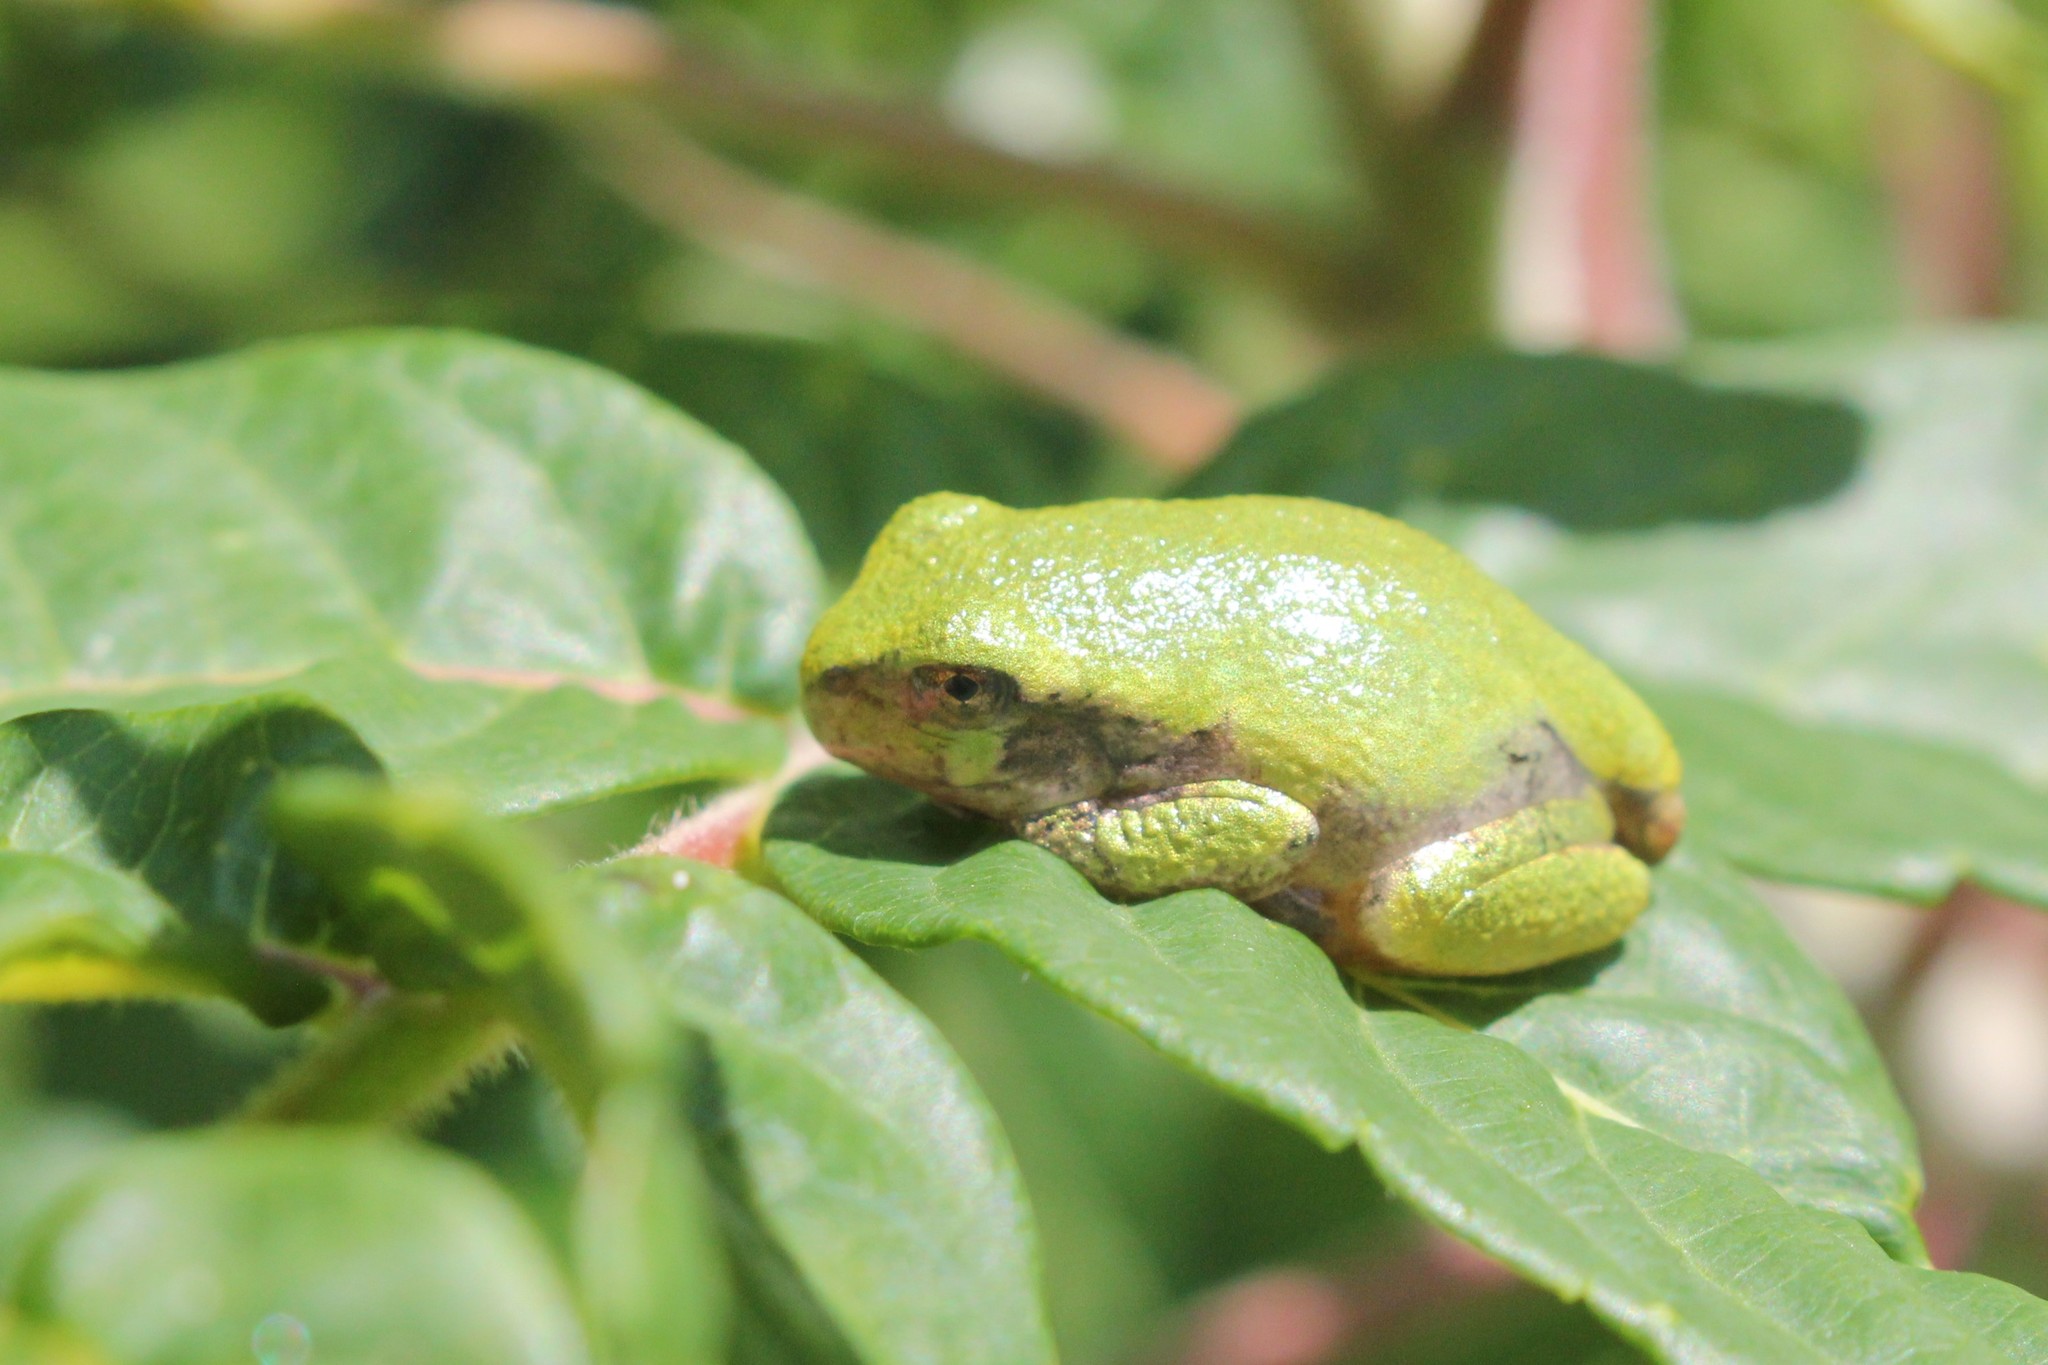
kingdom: Animalia
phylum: Chordata
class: Amphibia
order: Anura
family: Hylidae
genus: Dryophytes
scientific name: Dryophytes versicolor
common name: Gray treefrog
